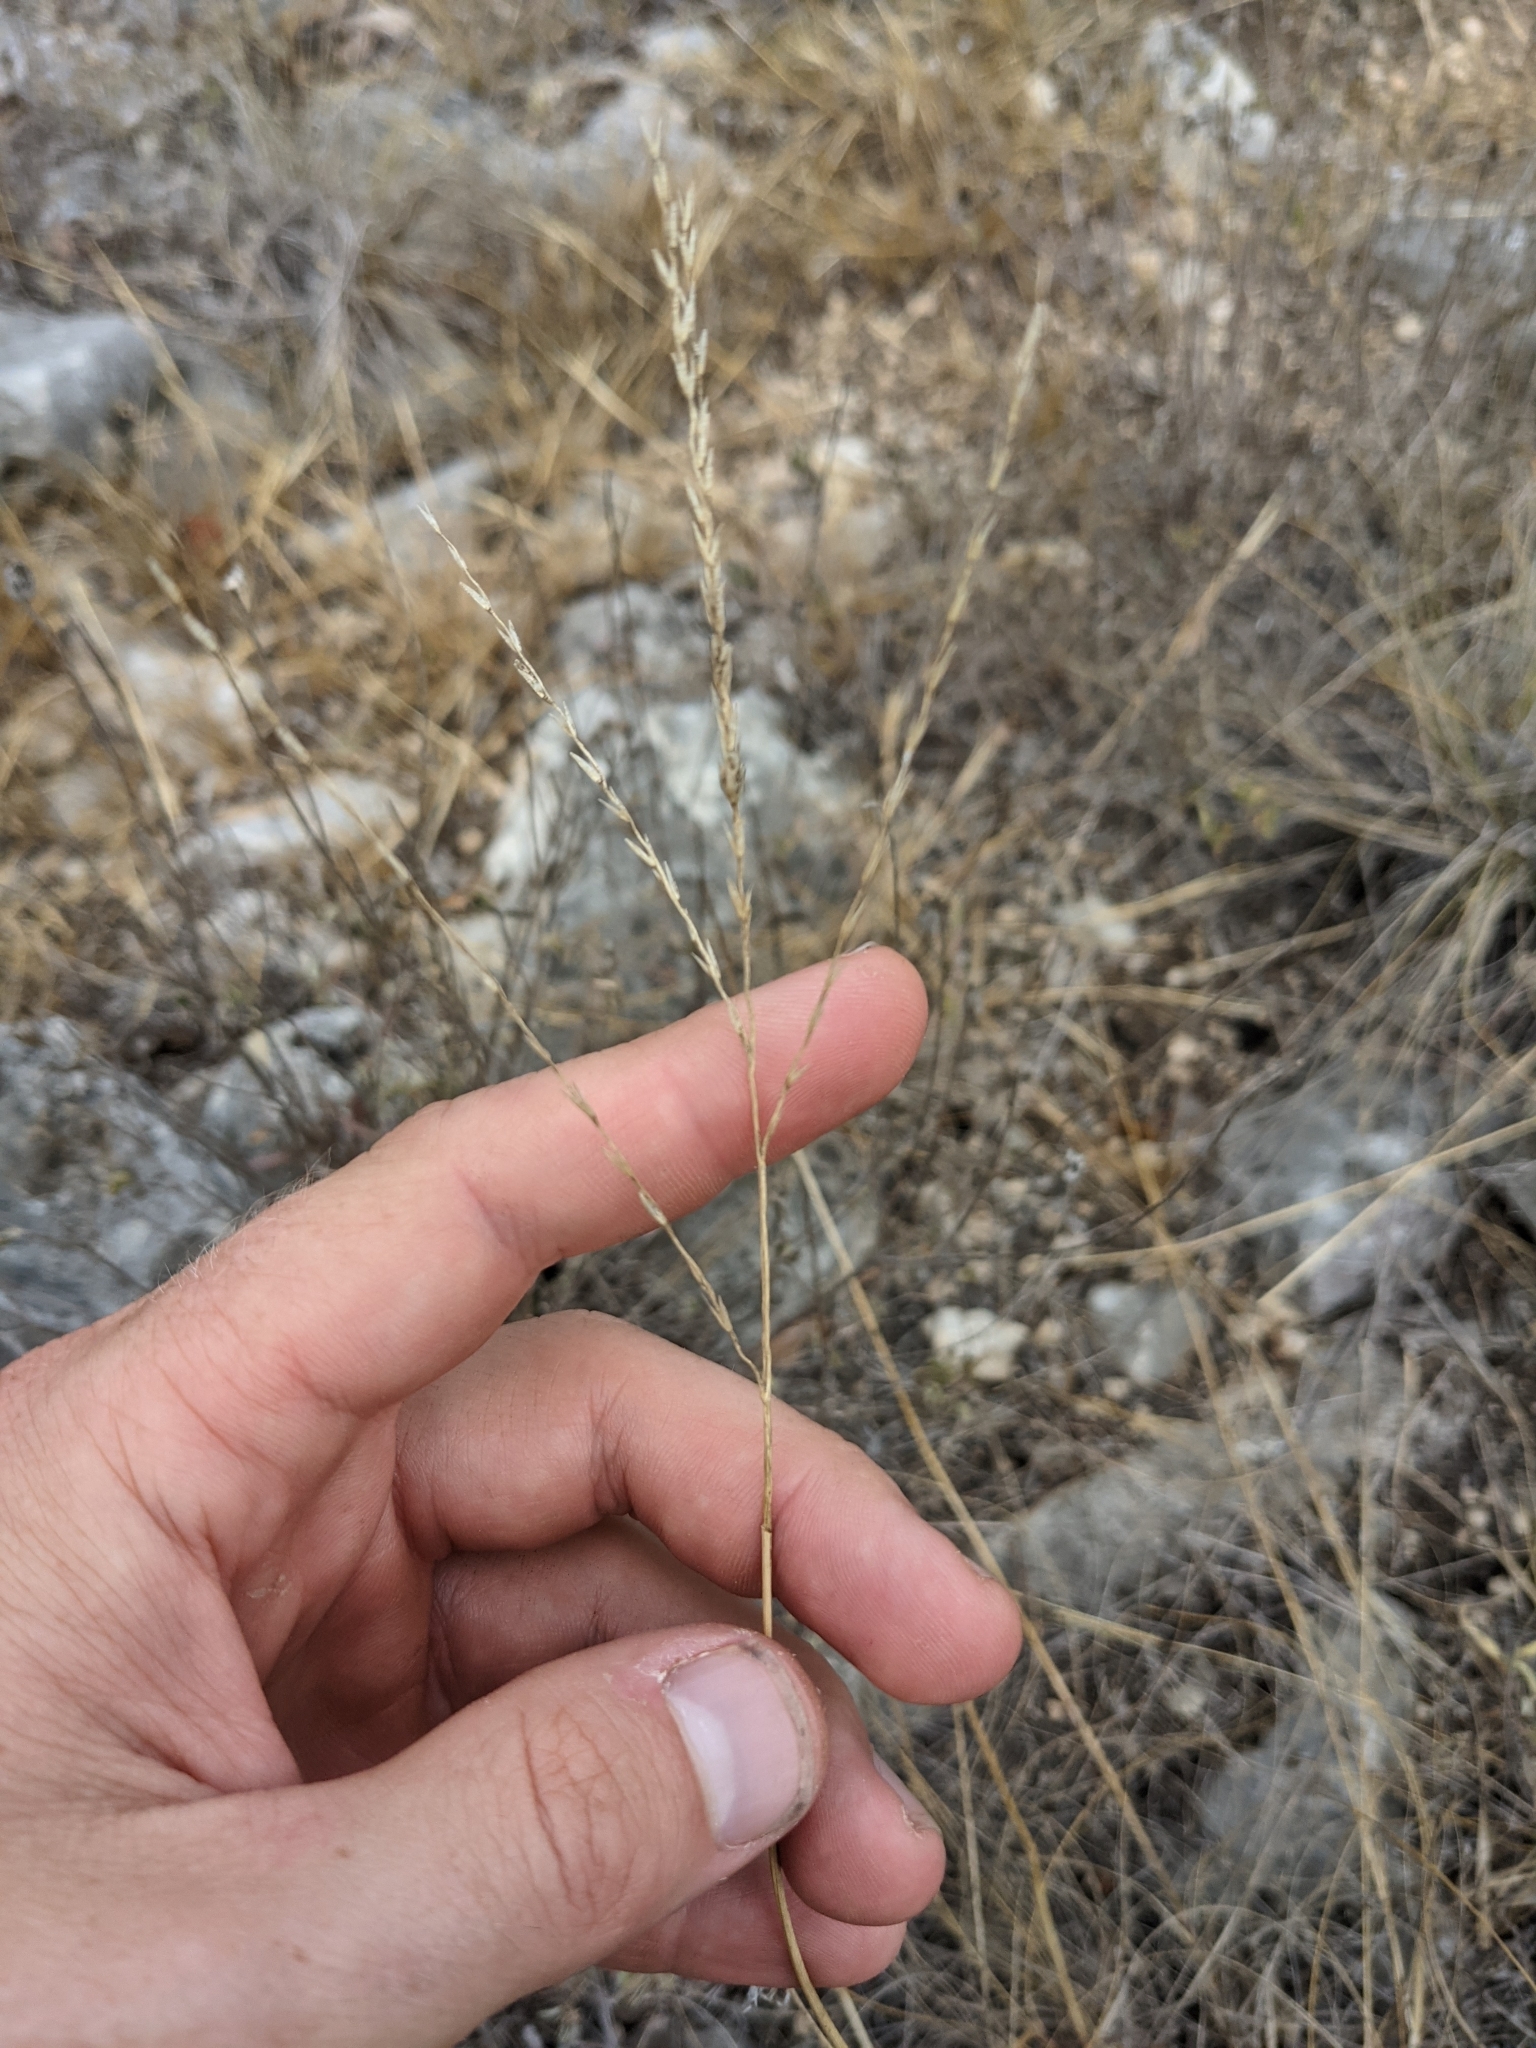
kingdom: Plantae
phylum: Tracheophyta
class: Liliopsida
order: Poales
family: Poaceae
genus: Disakisperma
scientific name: Disakisperma dubium
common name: Green sprangletop
